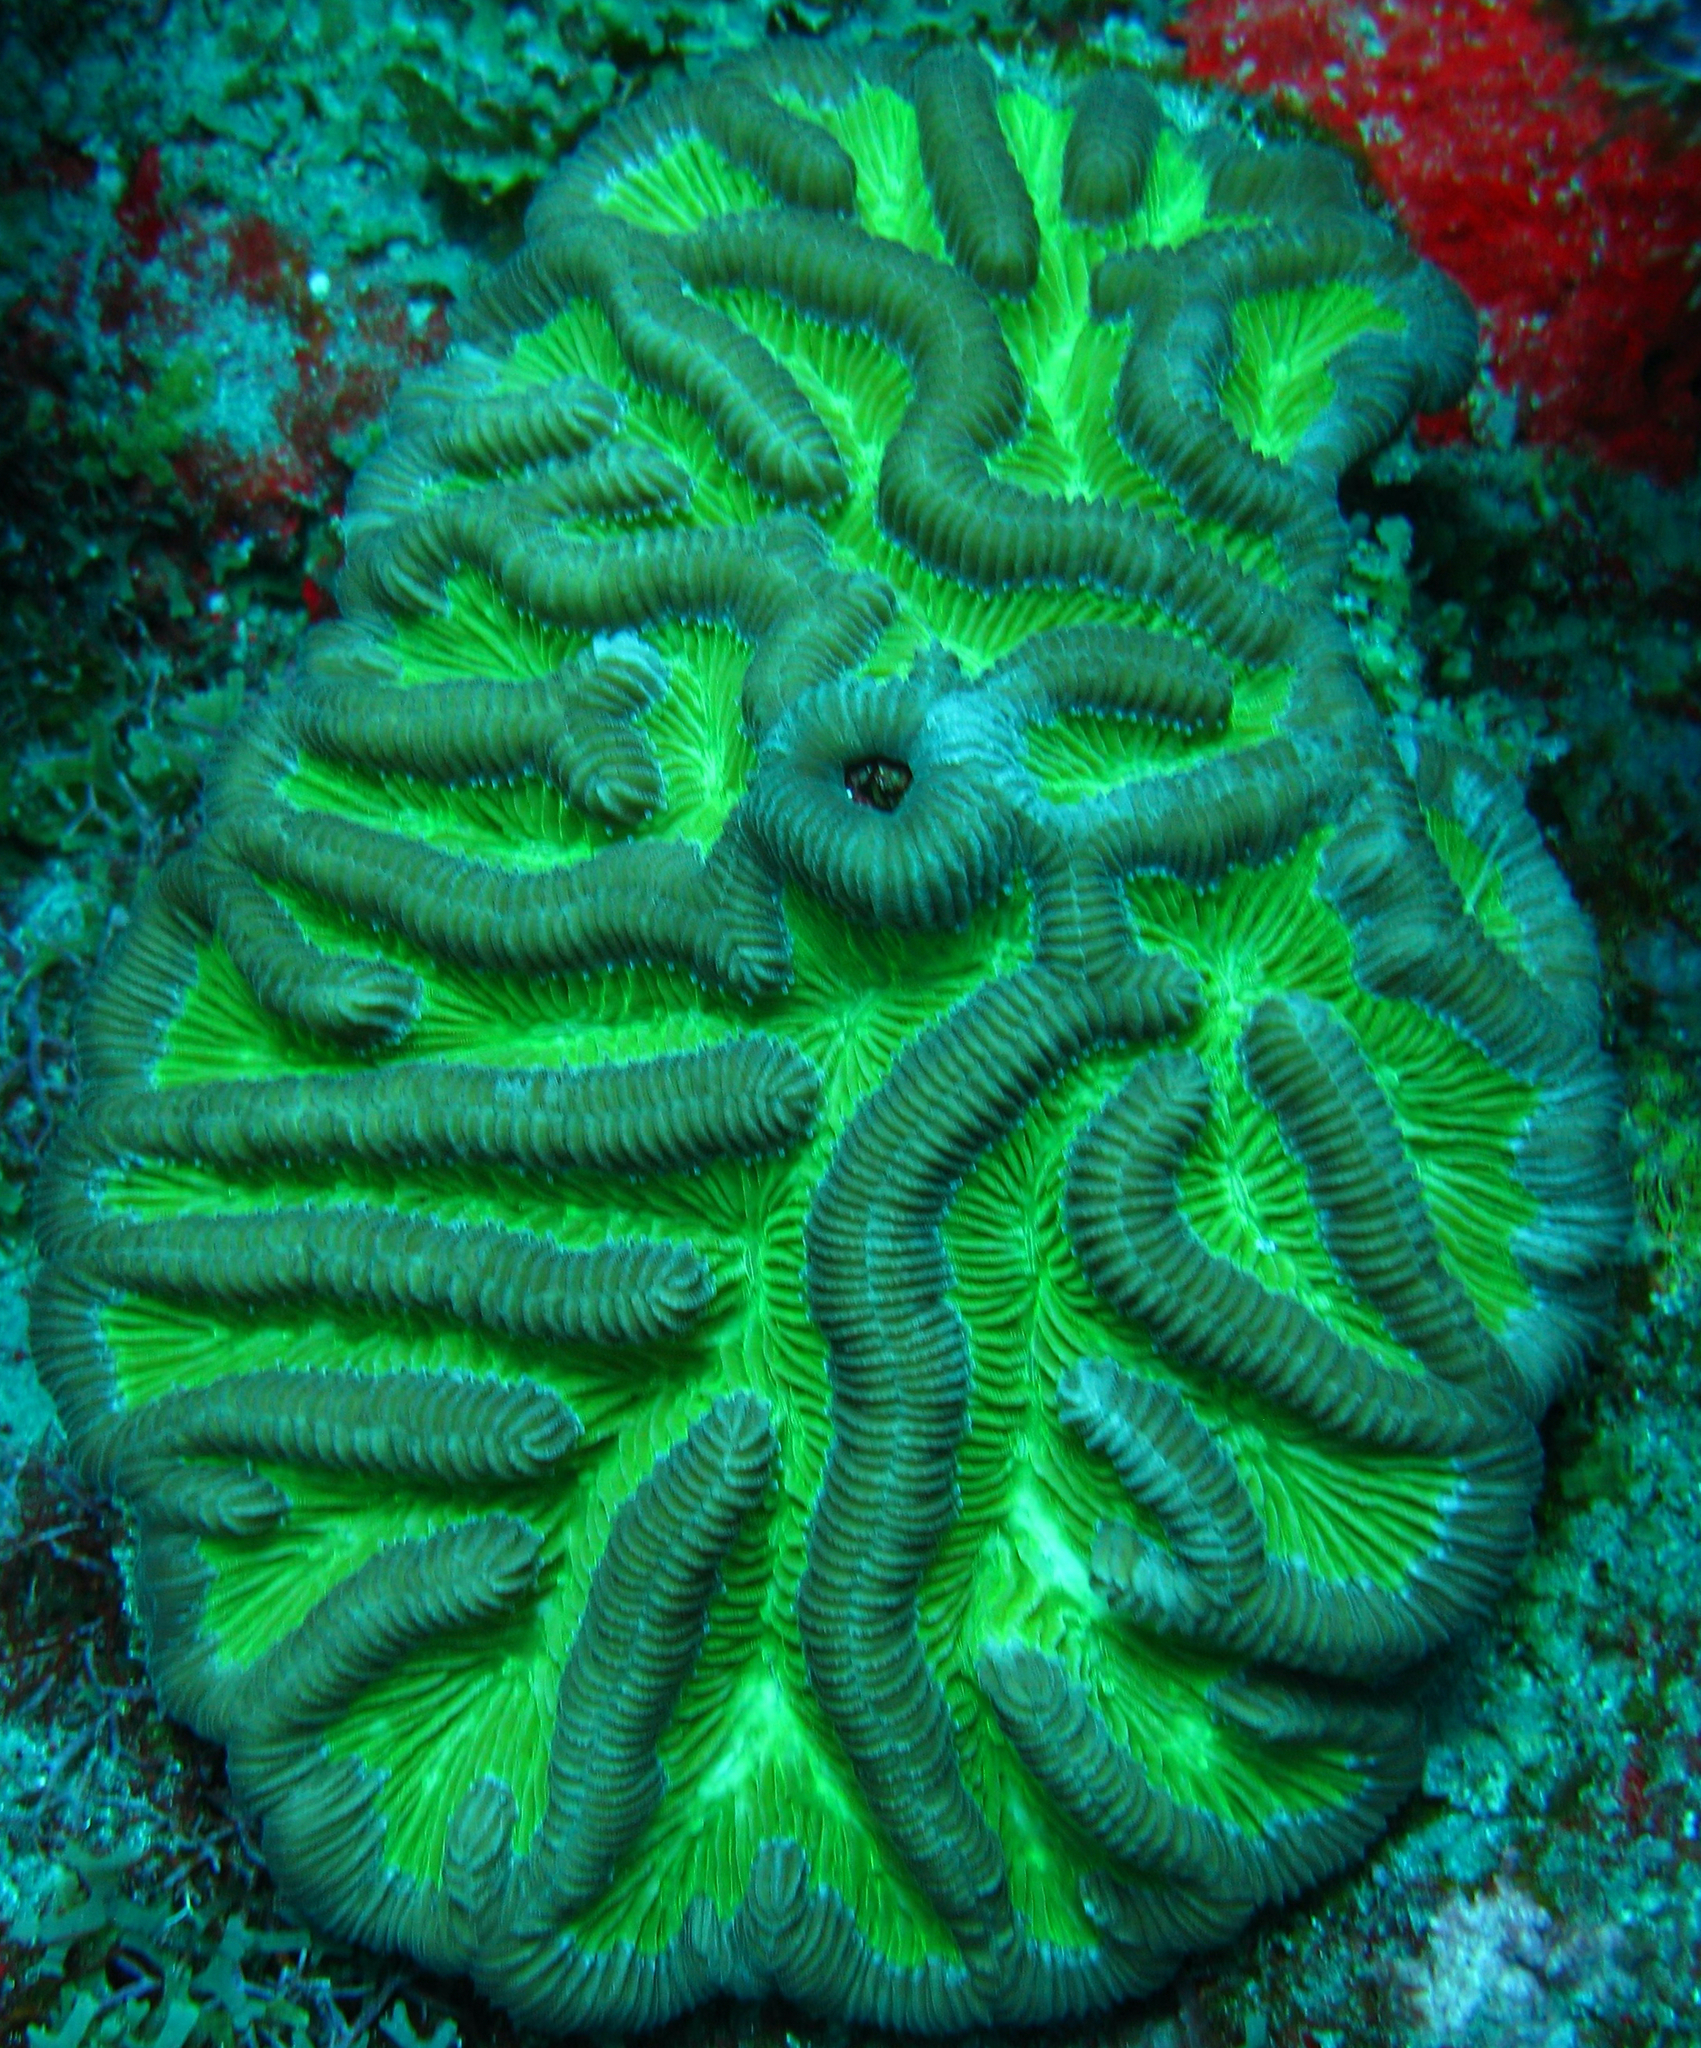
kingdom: Animalia
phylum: Cnidaria
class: Anthozoa
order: Scleractinia
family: Faviidae
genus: Colpophyllia
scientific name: Colpophyllia natans
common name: Boulder brain coral
